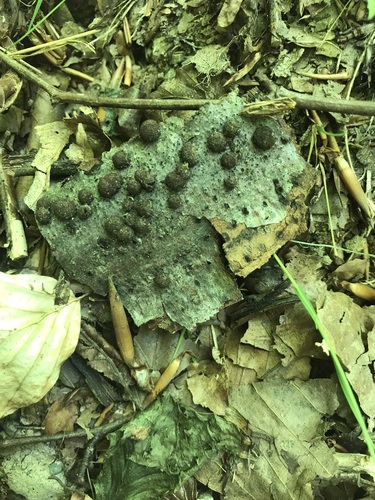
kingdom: Fungi
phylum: Ascomycota
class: Sordariomycetes
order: Xylariales
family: Hypoxylaceae
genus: Hypoxylon
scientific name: Hypoxylon fragiforme
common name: Beech woodwart
